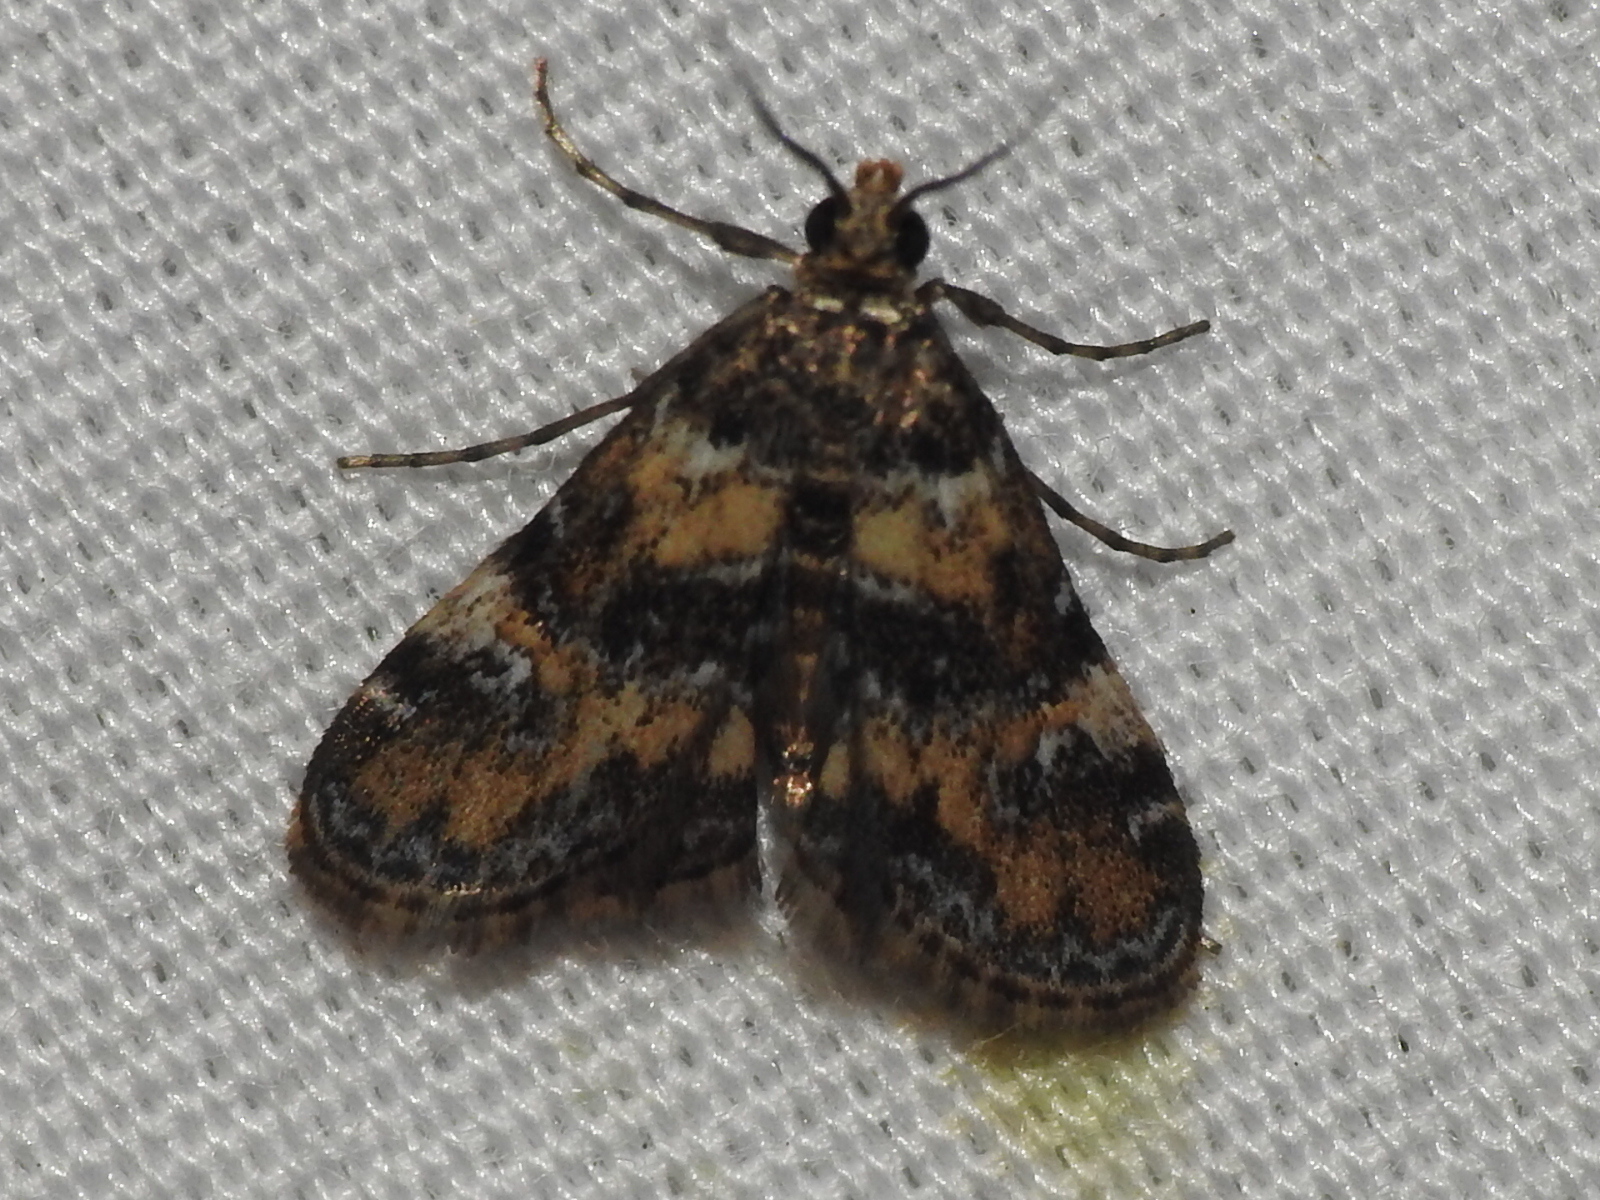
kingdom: Animalia
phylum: Arthropoda
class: Insecta
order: Lepidoptera
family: Crambidae
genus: Elophila
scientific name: Elophila obliteralis
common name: Waterlily leafcutter moth
